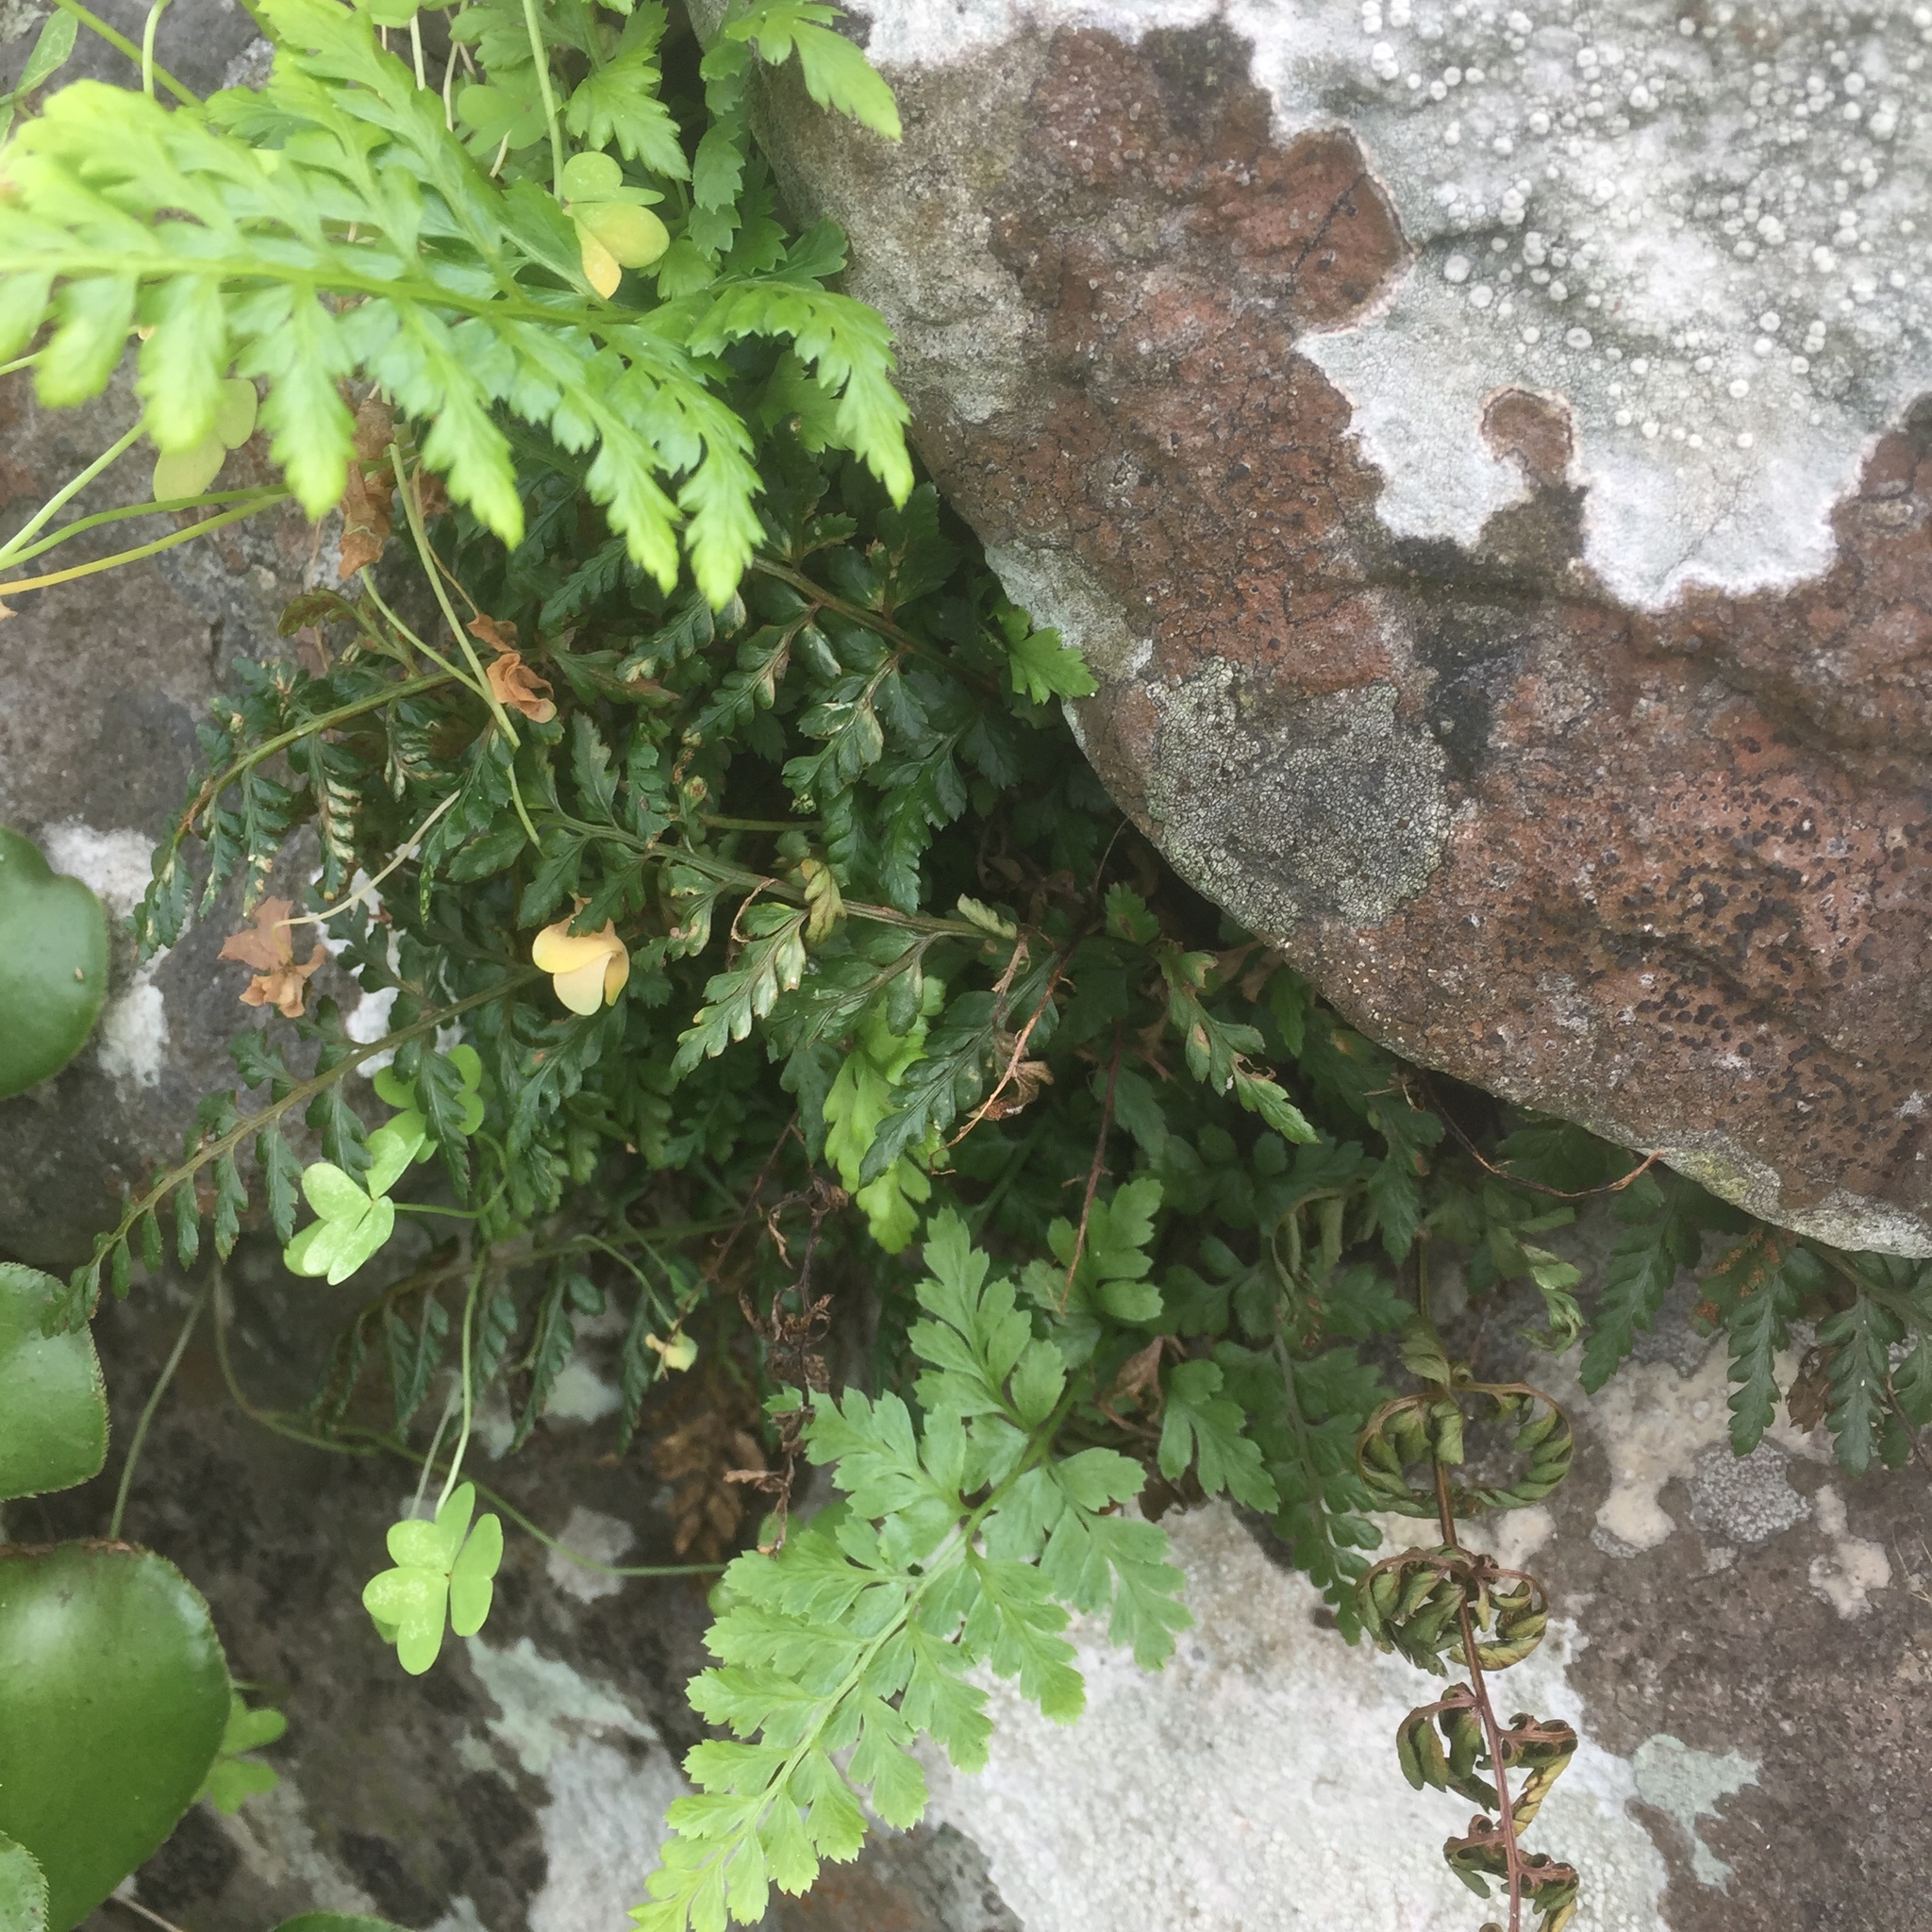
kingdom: Plantae
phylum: Tracheophyta
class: Polypodiopsida
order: Polypodiales
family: Aspleniaceae
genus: Asplenium
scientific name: Asplenium adiantum-nigrum
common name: Black spleenwort
